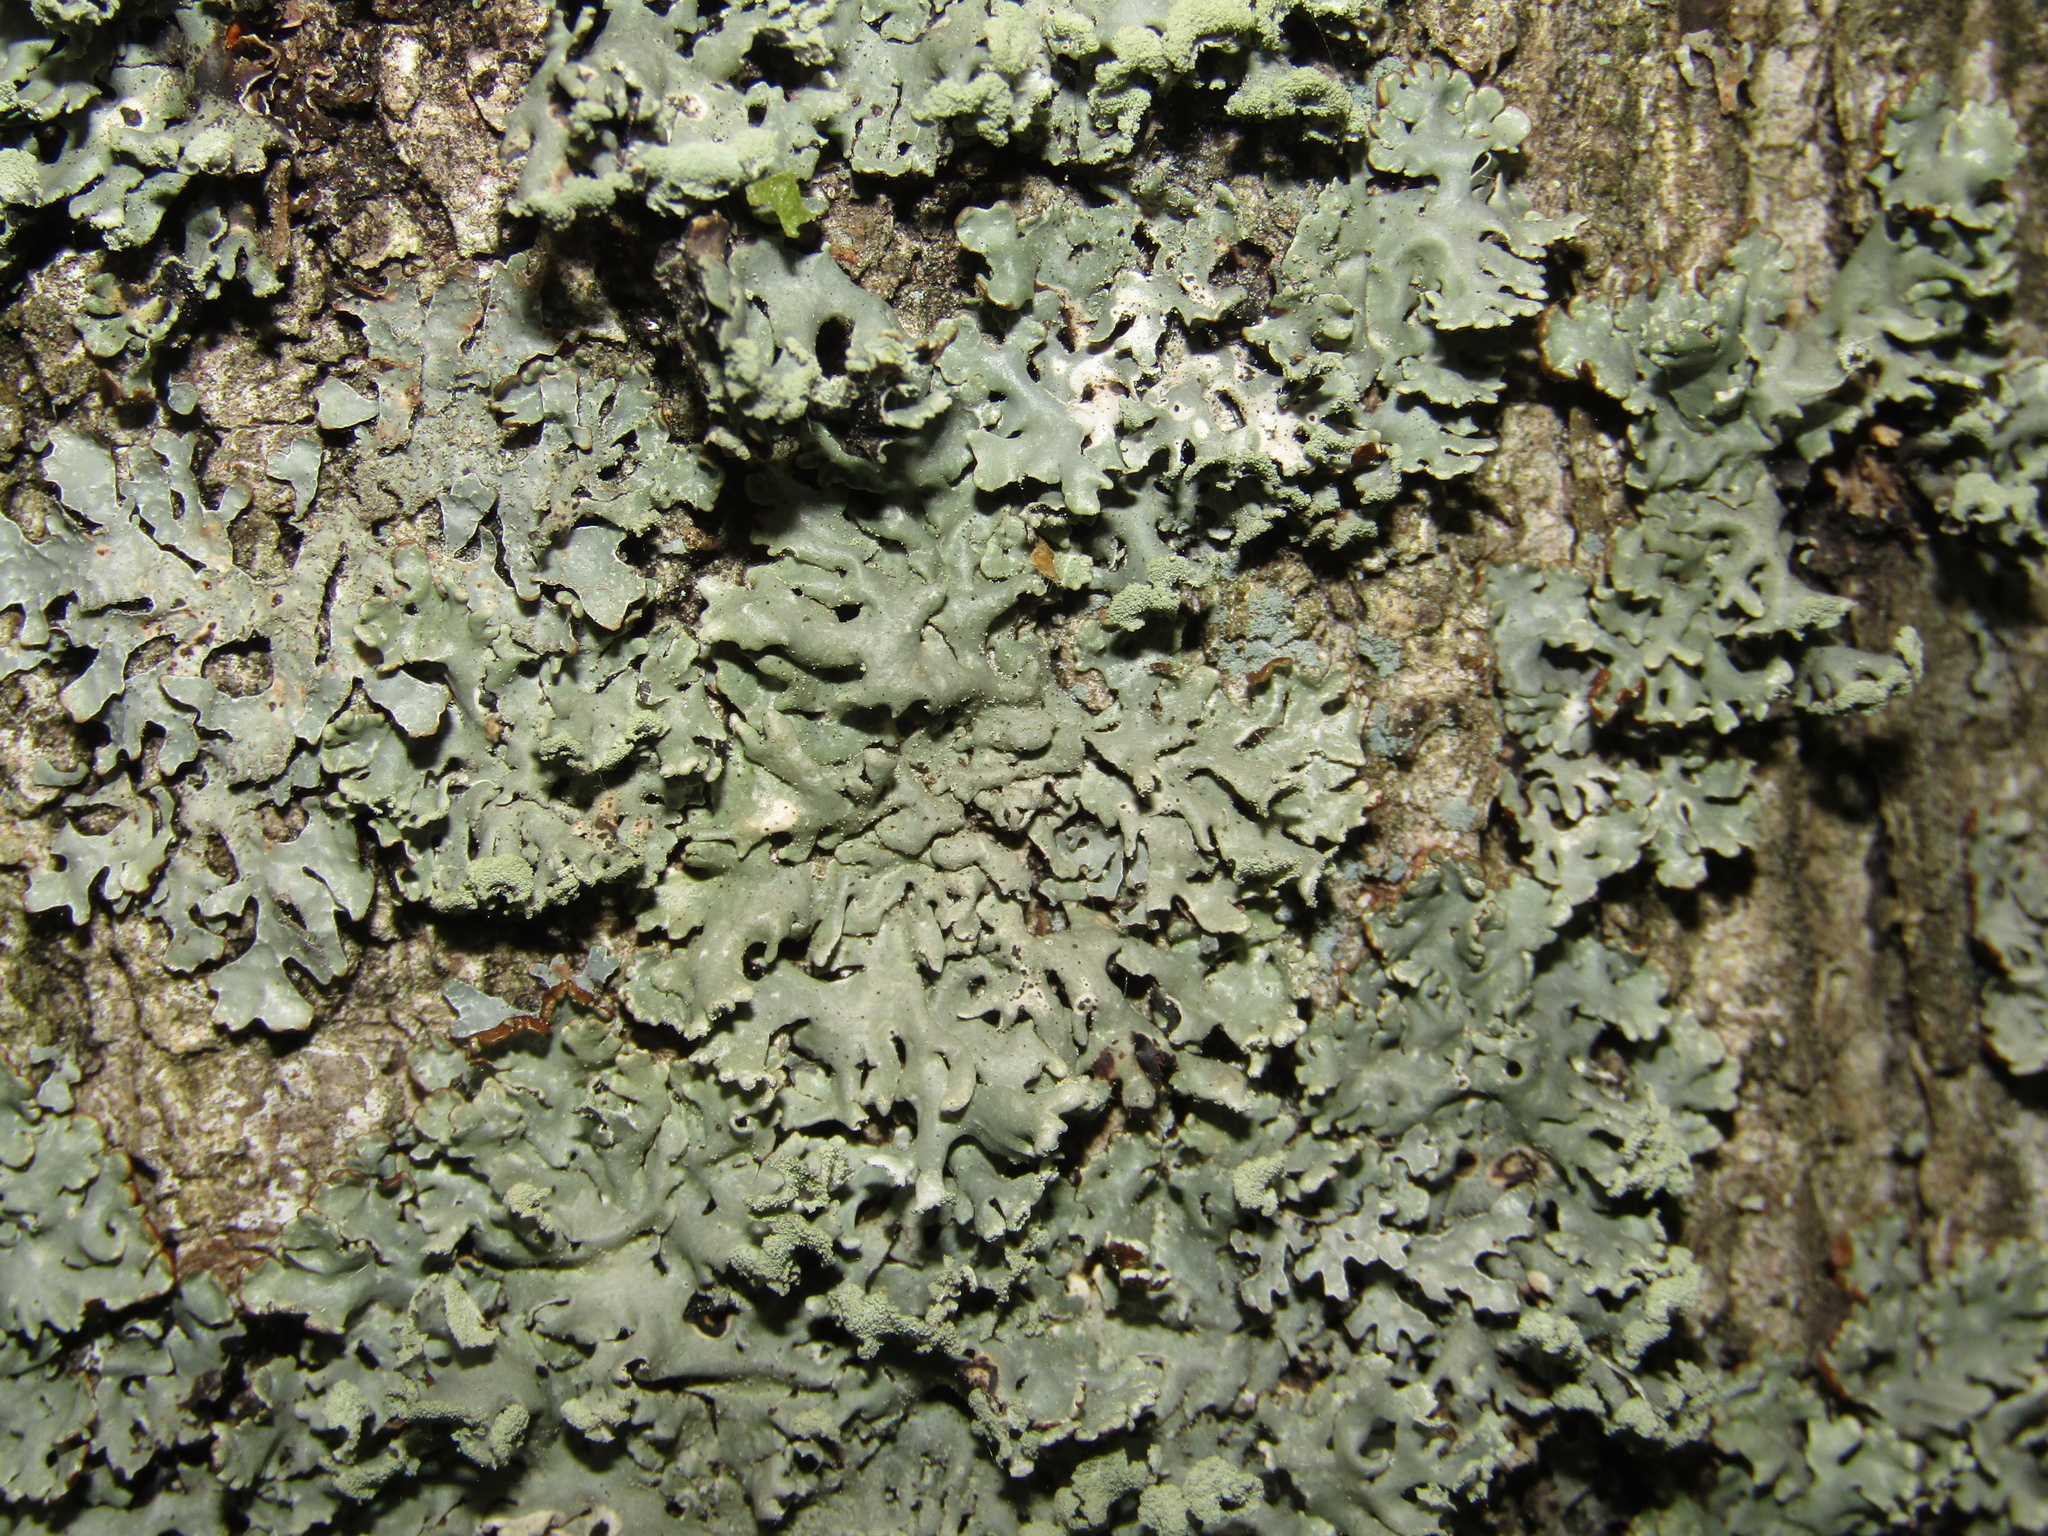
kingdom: Fungi
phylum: Ascomycota
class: Lecanoromycetes
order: Lecanorales
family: Parmeliaceae
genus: Hypogymnia
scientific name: Hypogymnia physodes
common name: Dark crottle
